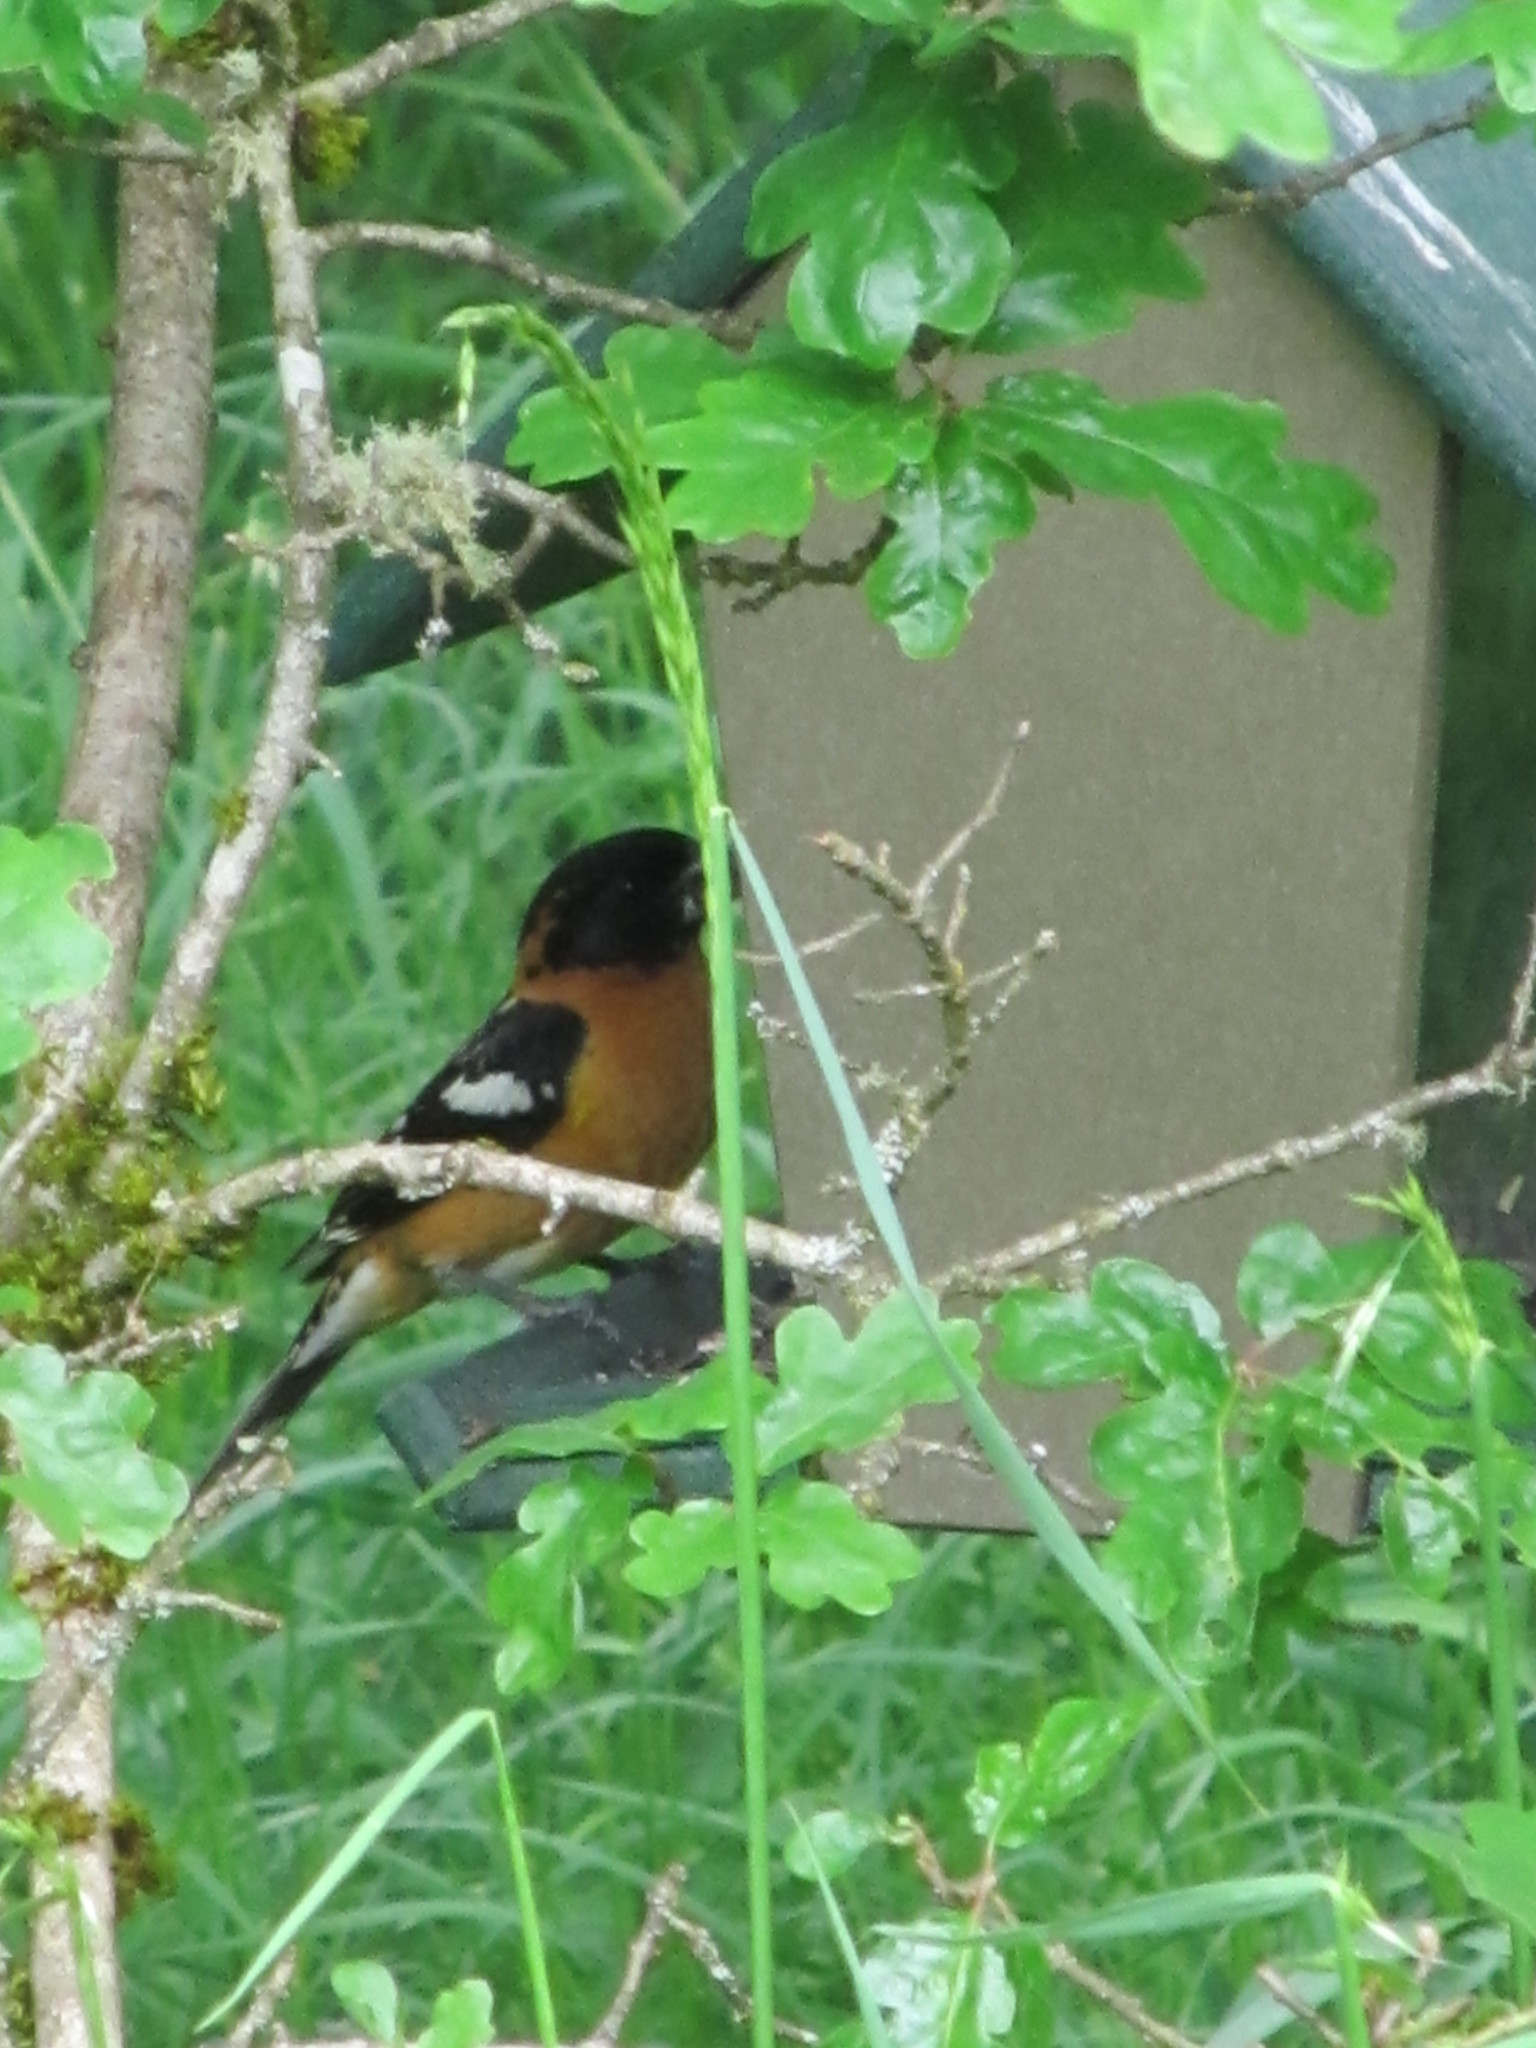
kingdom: Animalia
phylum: Chordata
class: Aves
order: Passeriformes
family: Cardinalidae
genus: Pheucticus
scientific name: Pheucticus melanocephalus
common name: Black-headed grosbeak
